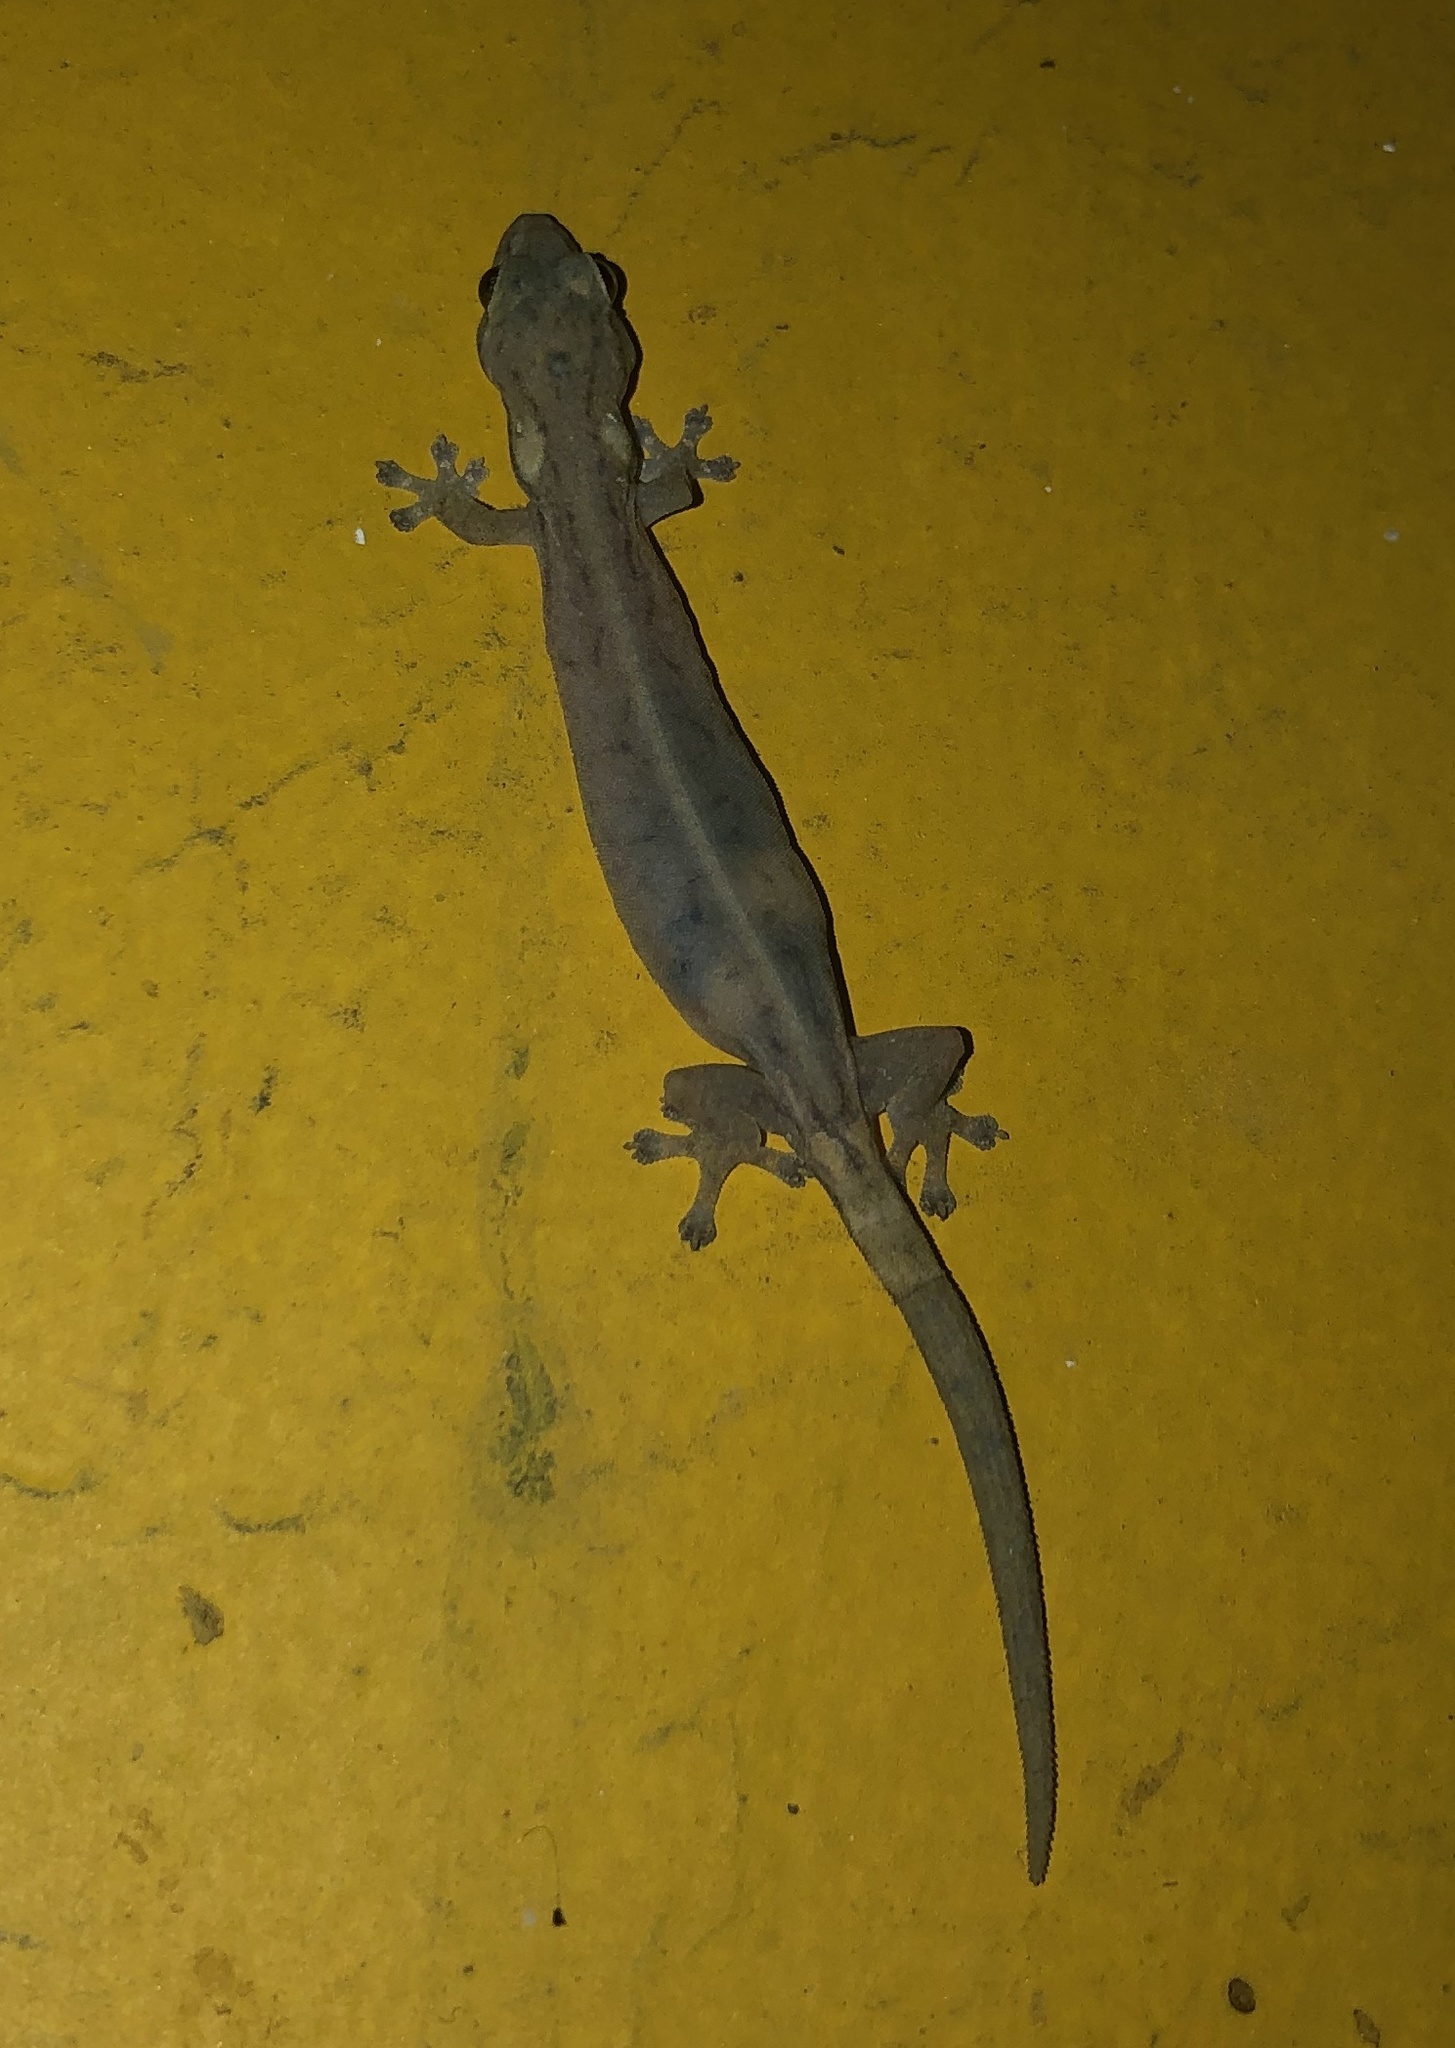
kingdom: Animalia
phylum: Chordata
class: Squamata
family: Gekkonidae
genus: Hemiphyllodactylus
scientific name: Hemiphyllodactylus typus
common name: Common dwarf gecko
